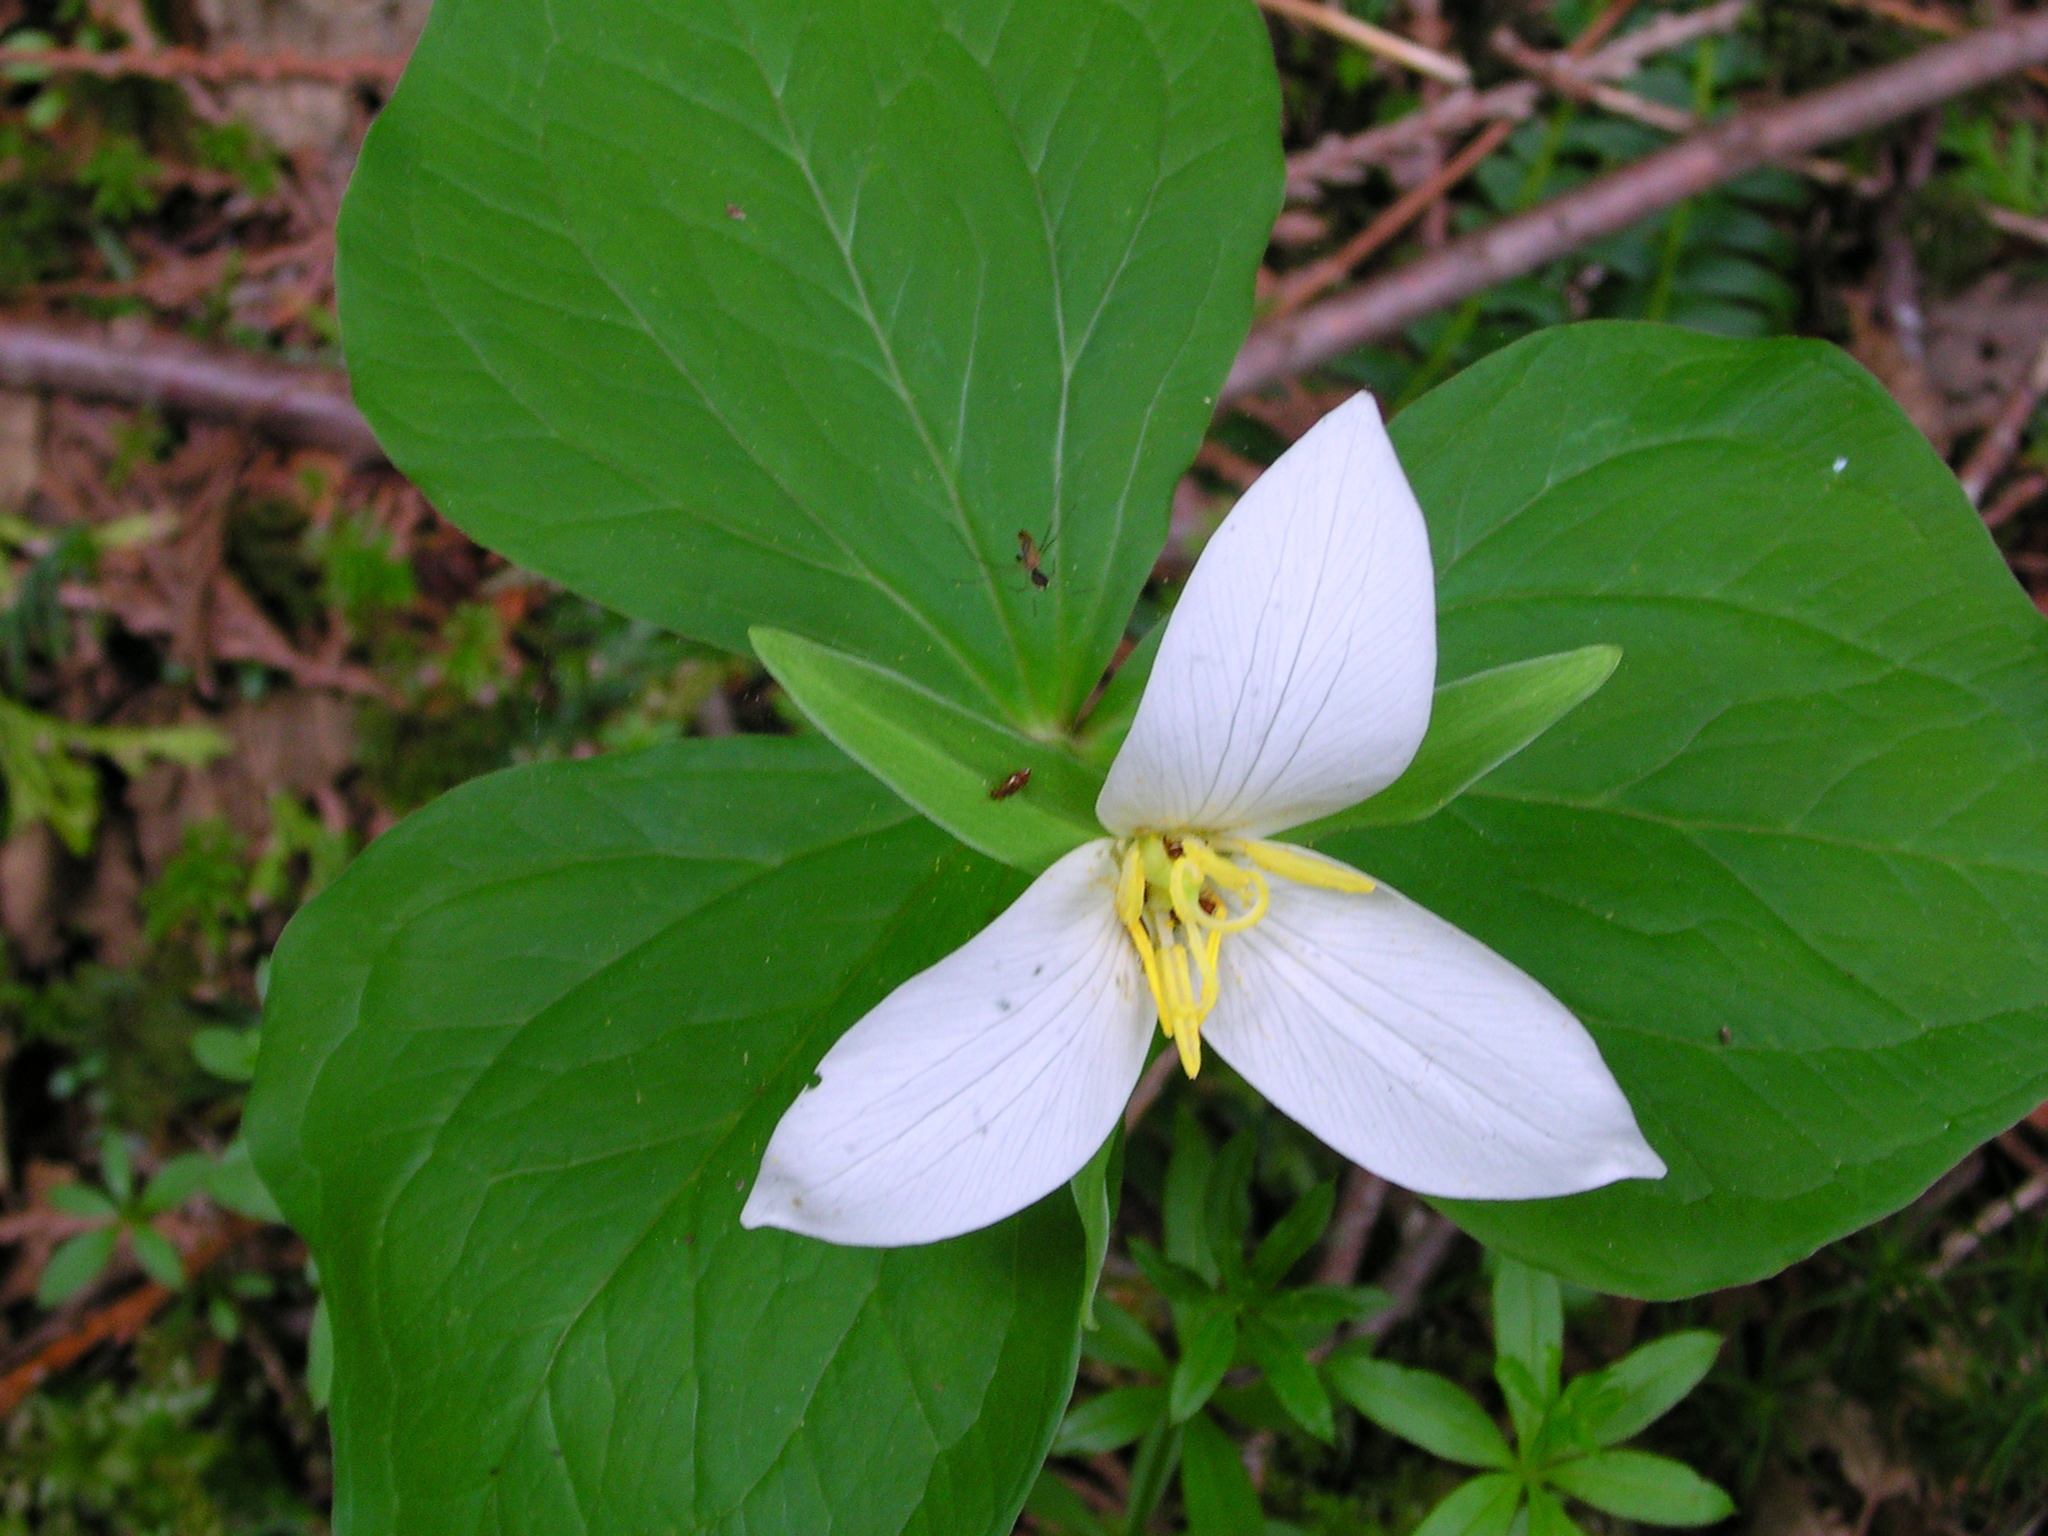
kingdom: Plantae
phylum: Tracheophyta
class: Liliopsida
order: Liliales
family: Melanthiaceae
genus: Trillium
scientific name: Trillium ovatum
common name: Pacific trillium
